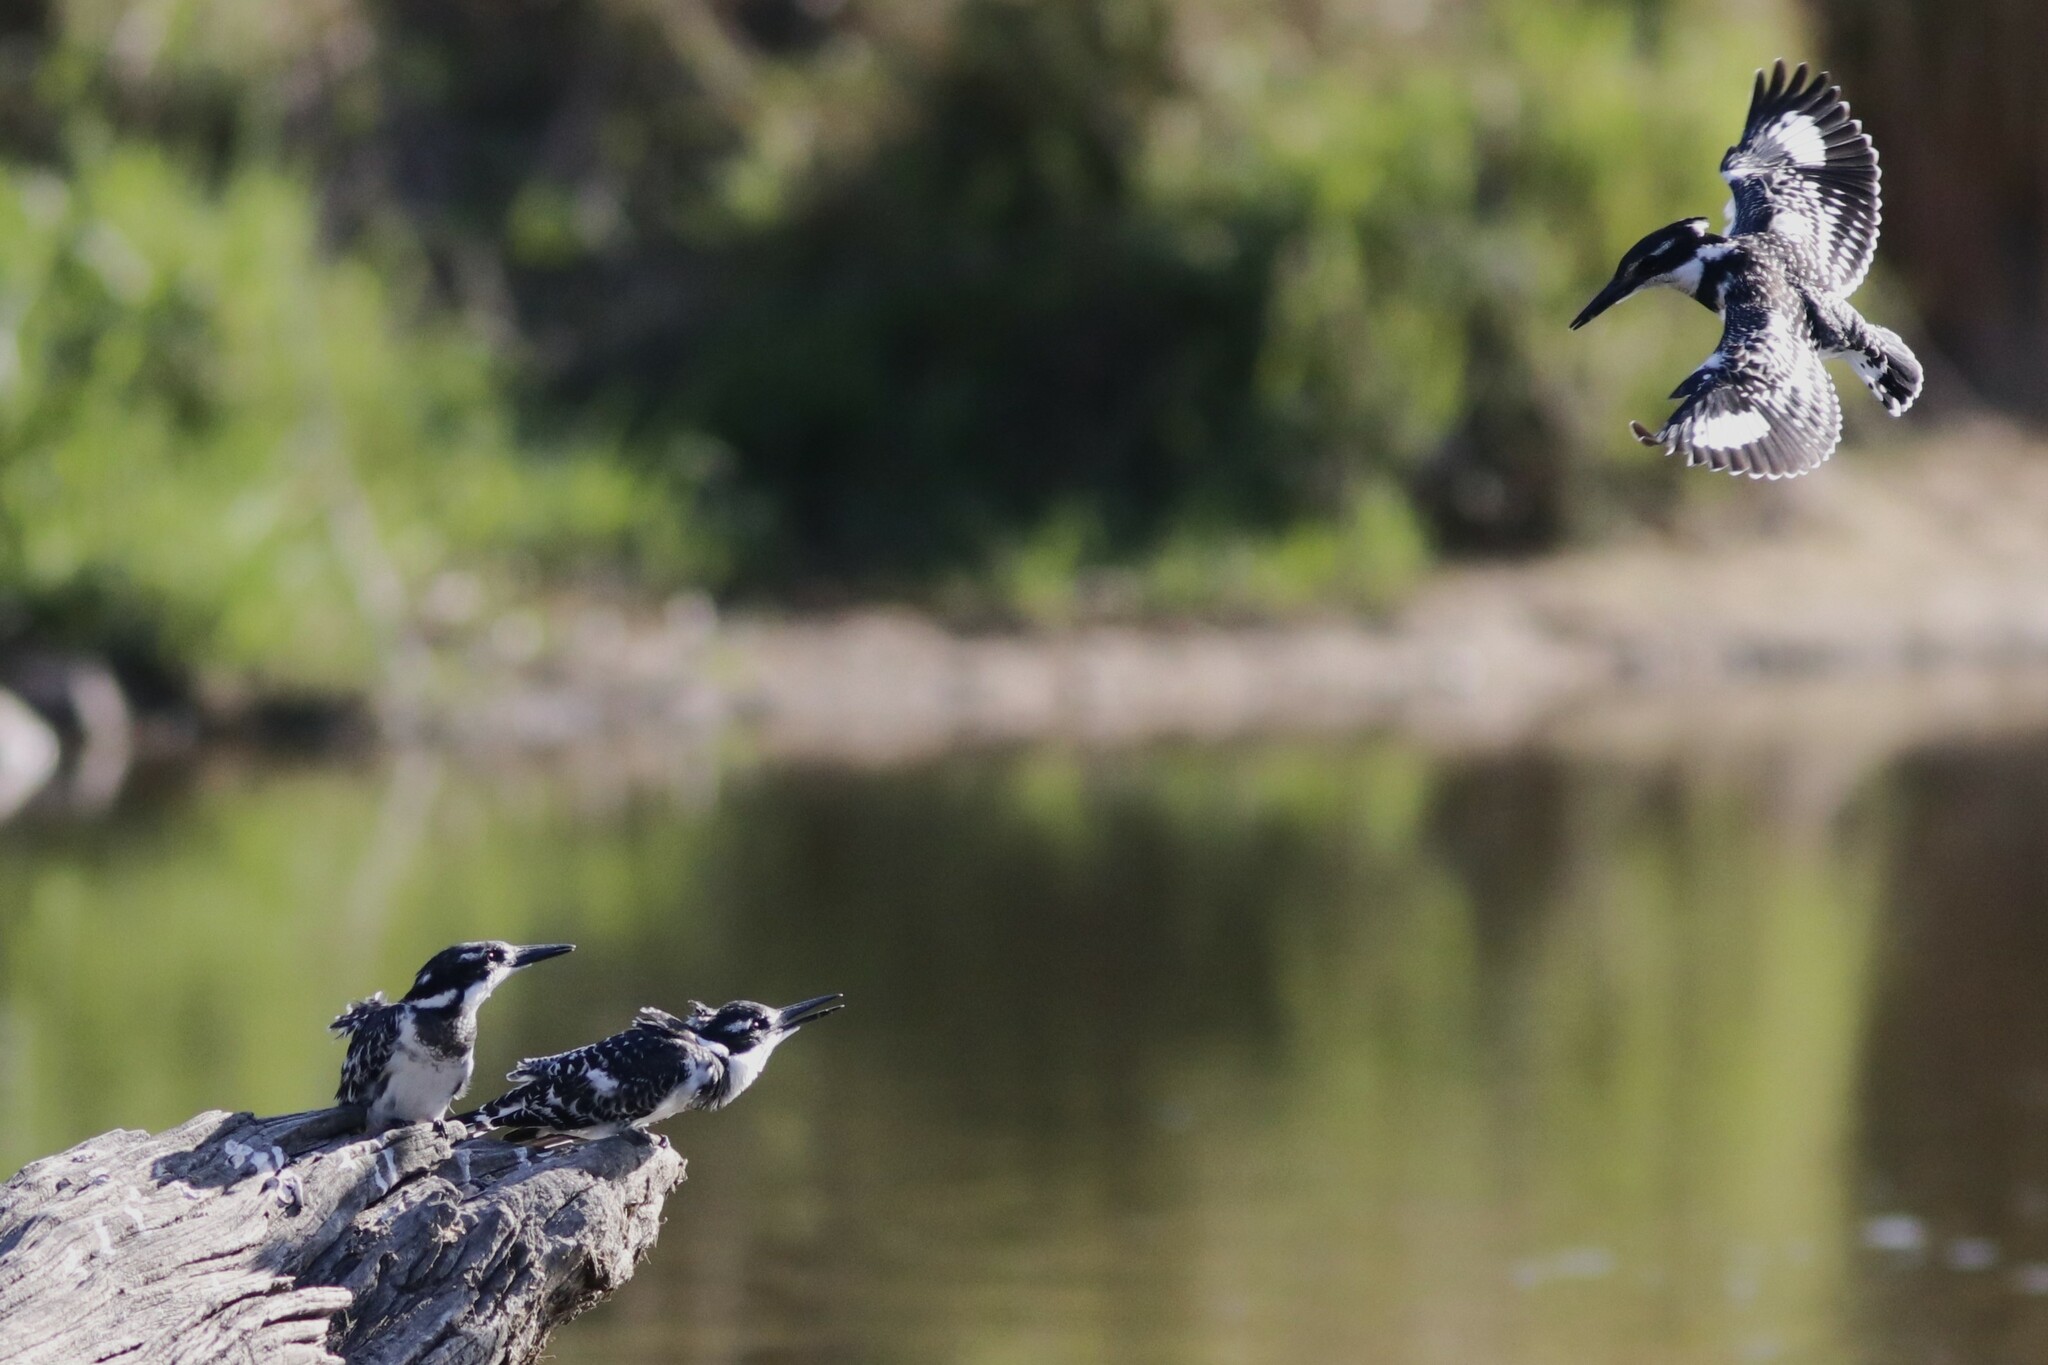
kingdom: Animalia
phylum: Chordata
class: Aves
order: Coraciiformes
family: Alcedinidae
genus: Ceryle
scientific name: Ceryle rudis
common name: Pied kingfisher
